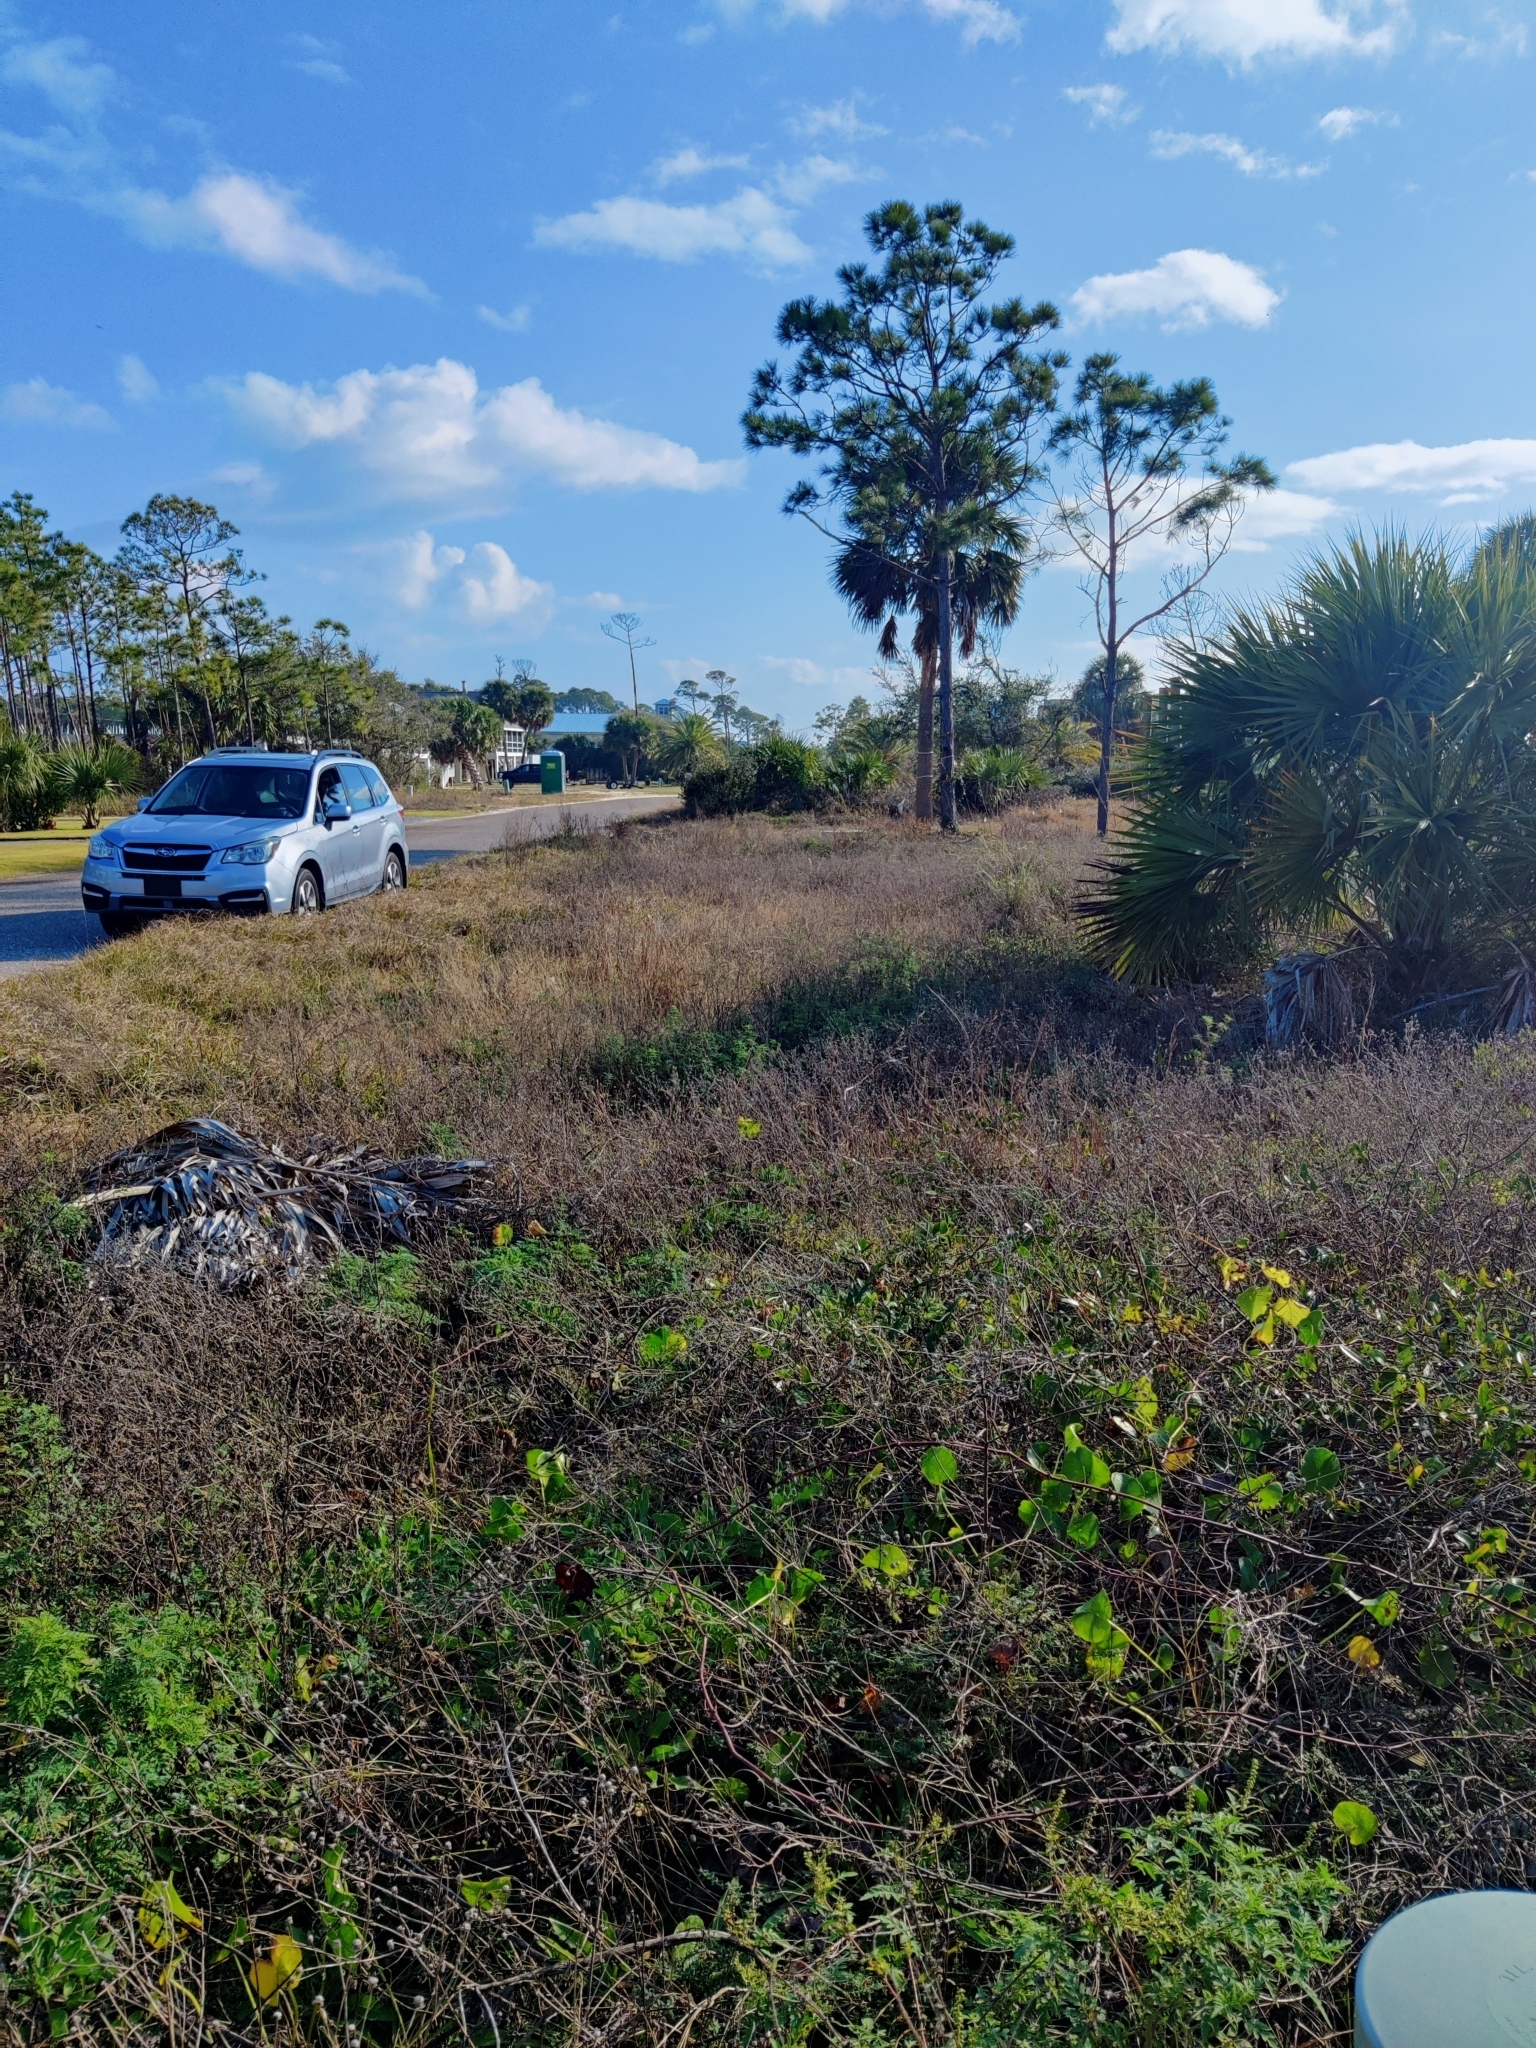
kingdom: Plantae
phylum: Tracheophyta
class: Magnoliopsida
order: Asterales
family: Asteraceae
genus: Ambrosia
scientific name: Ambrosia artemisiifolia
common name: Annual ragweed
